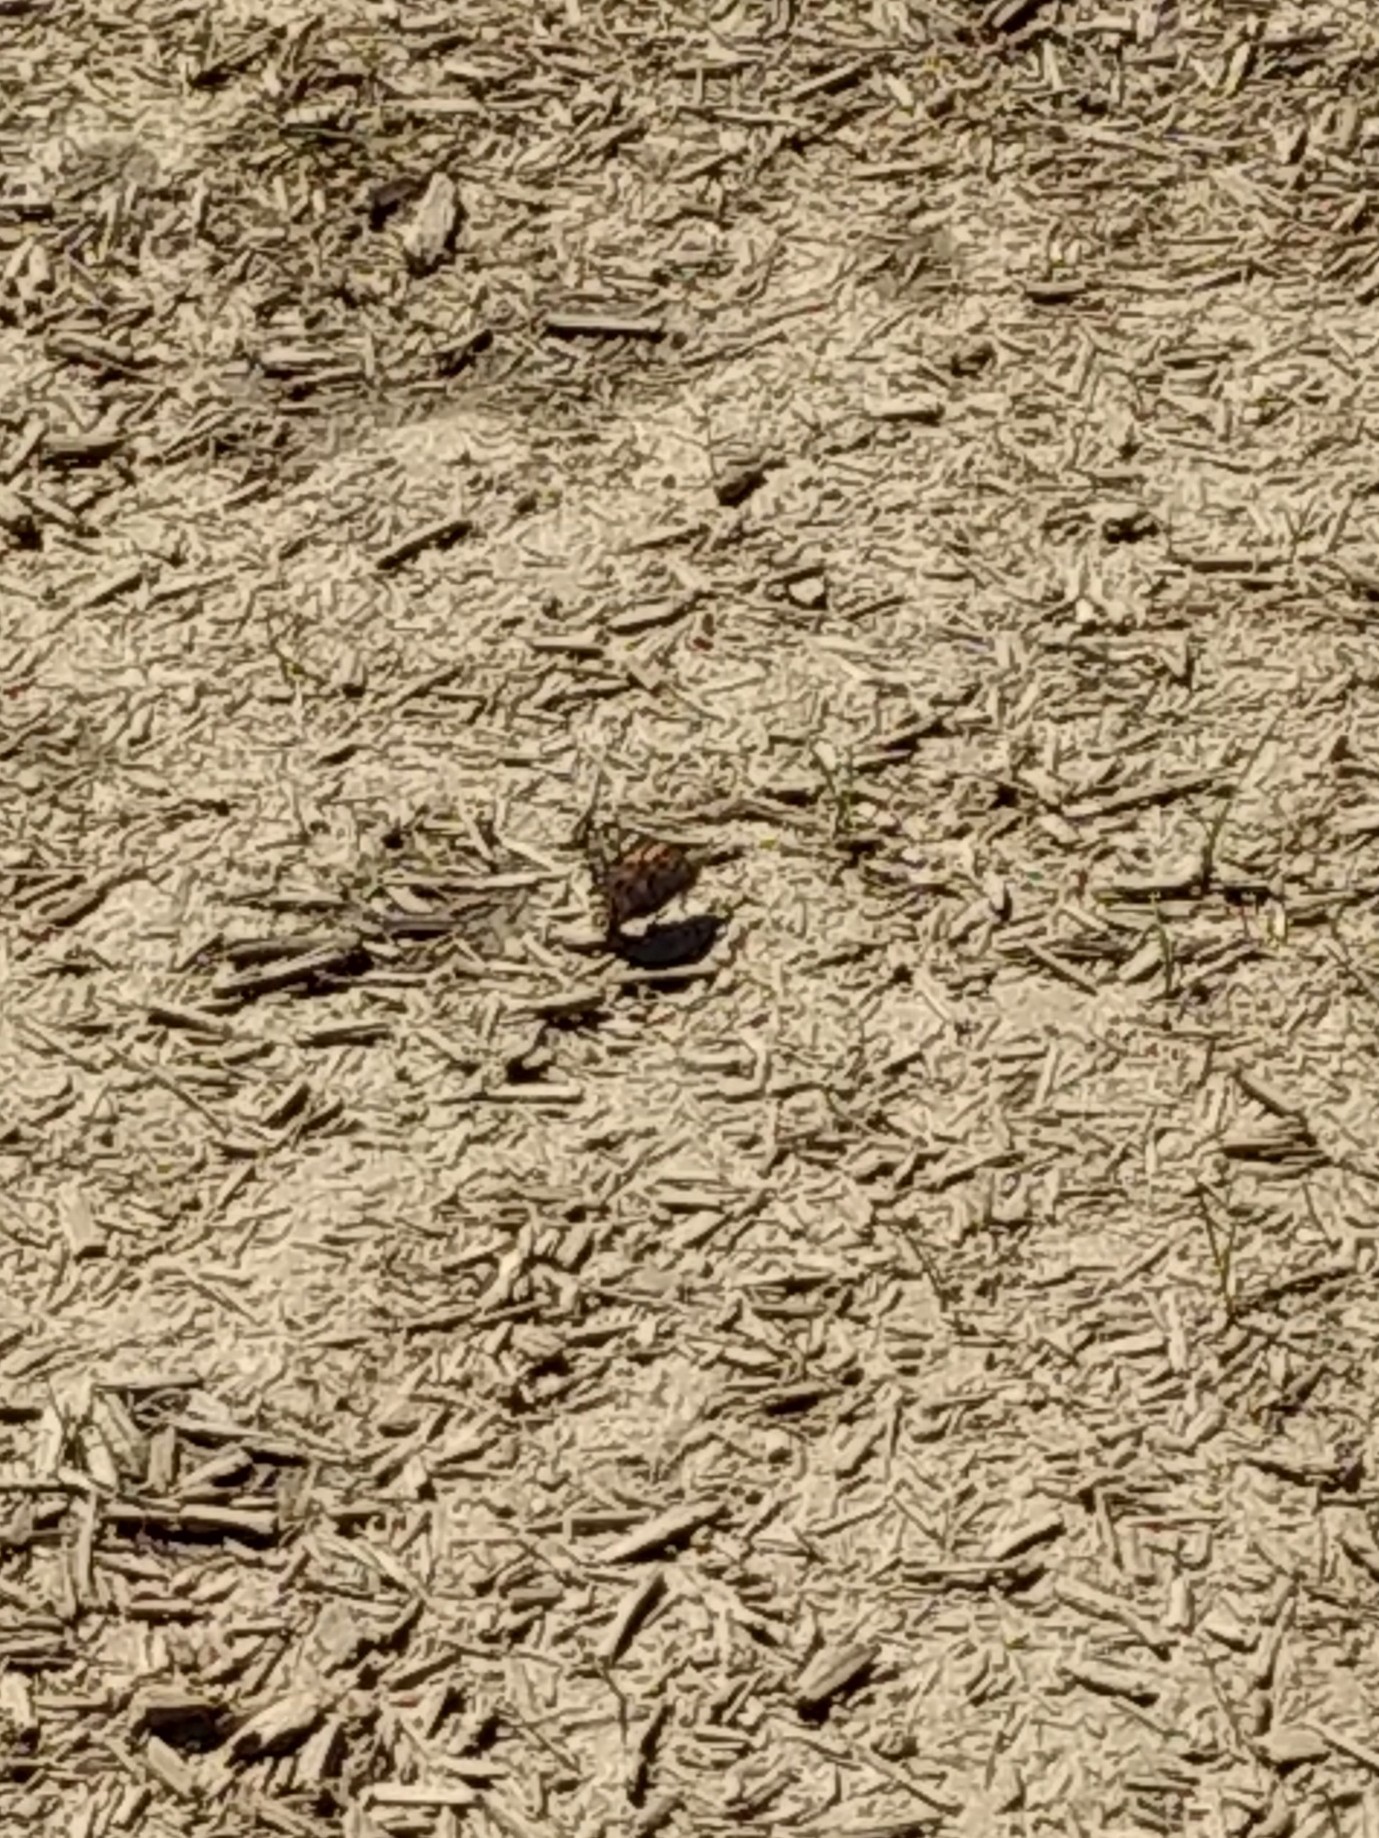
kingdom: Animalia
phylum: Arthropoda
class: Insecta
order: Lepidoptera
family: Nymphalidae
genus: Vanessa
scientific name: Vanessa cardui
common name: Painted lady
